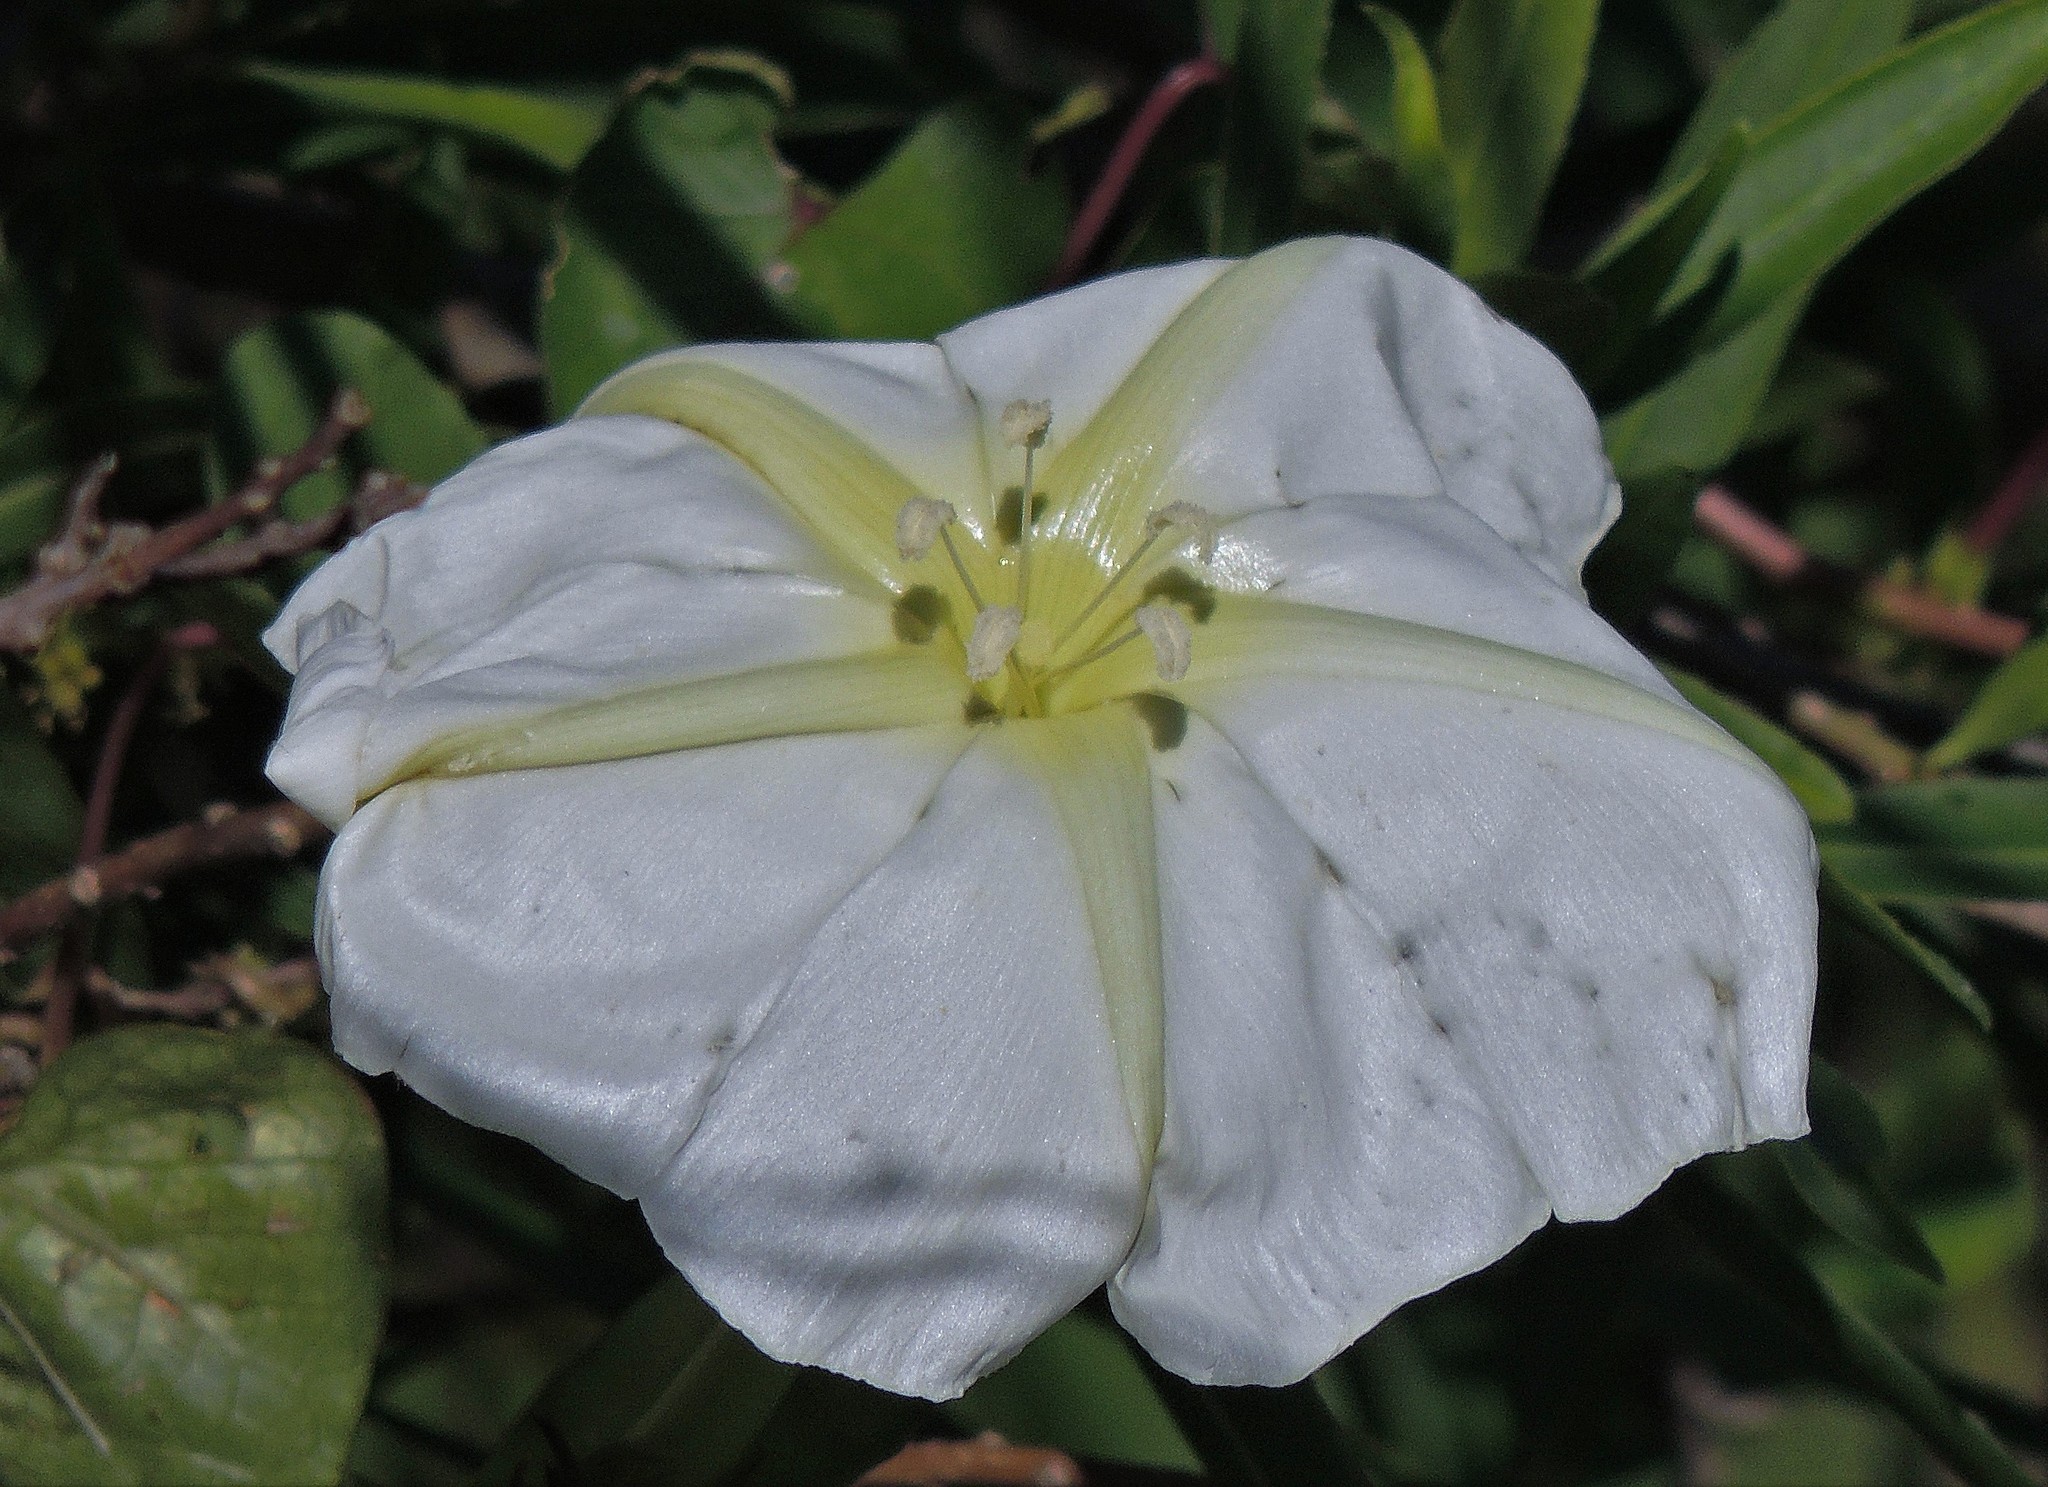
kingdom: Plantae
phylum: Tracheophyta
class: Magnoliopsida
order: Solanales
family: Convolvulaceae
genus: Ipomoea
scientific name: Ipomoea alba
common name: Moonflower
